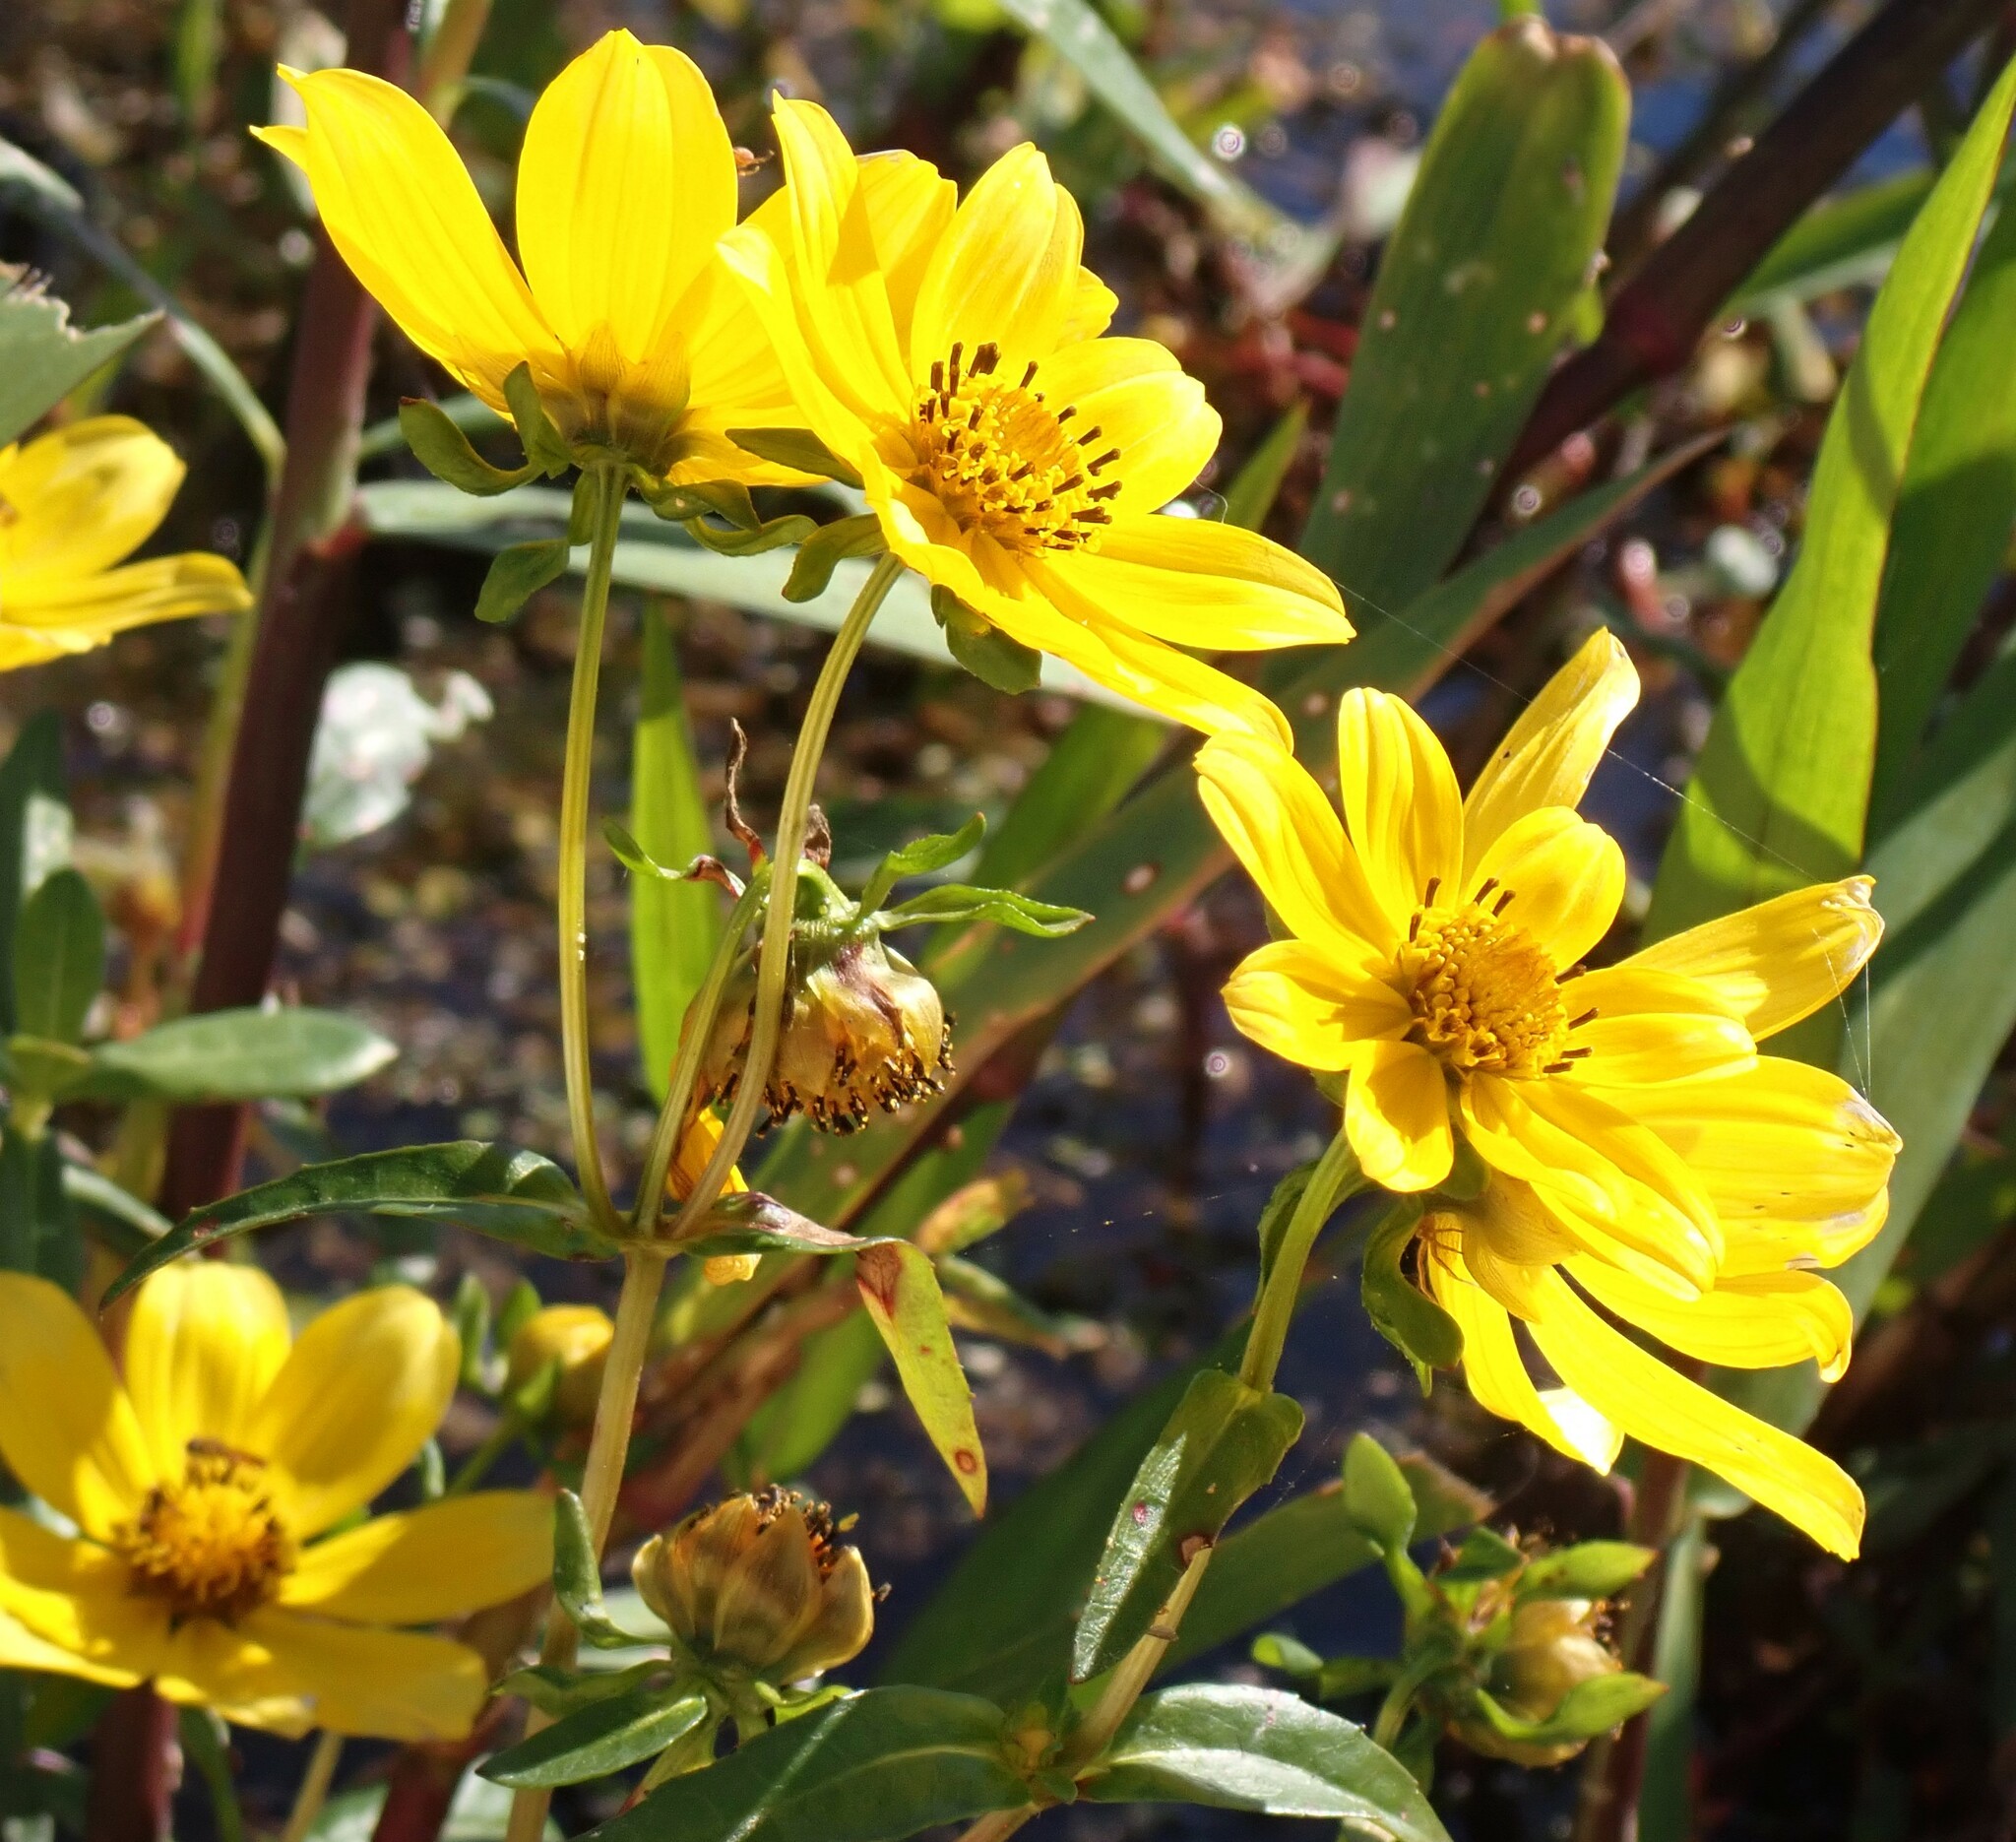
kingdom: Plantae
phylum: Tracheophyta
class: Magnoliopsida
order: Asterales
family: Asteraceae
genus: Bidens
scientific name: Bidens laevis
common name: Larger bur-marigold
